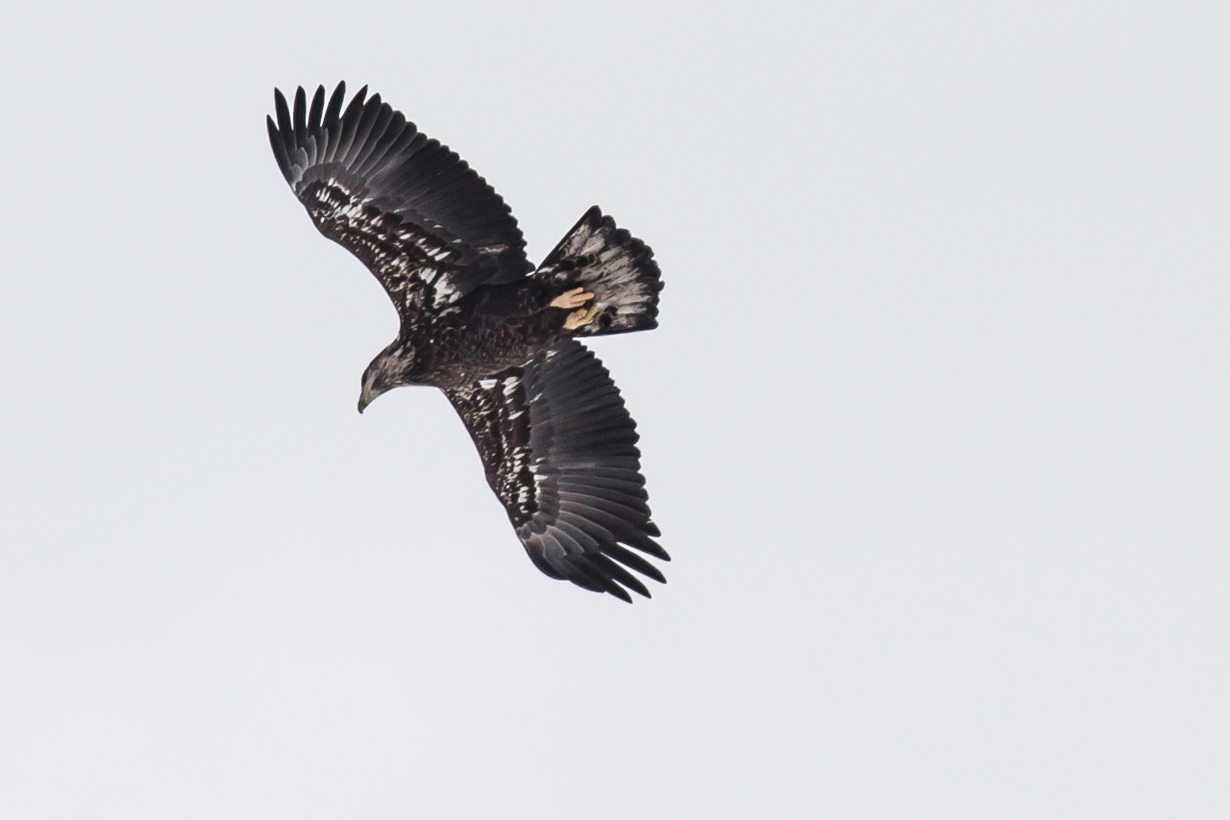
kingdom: Animalia
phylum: Chordata
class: Aves
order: Accipitriformes
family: Accipitridae
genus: Haliaeetus
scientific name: Haliaeetus leucocephalus
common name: Bald eagle
